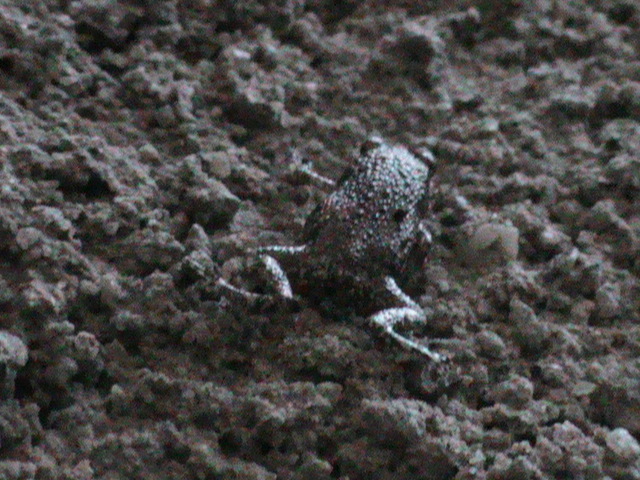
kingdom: Animalia
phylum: Chordata
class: Amphibia
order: Anura
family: Microhylidae
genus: Uperodon
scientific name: Uperodon taprobanicus
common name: Ceylon kaloula
